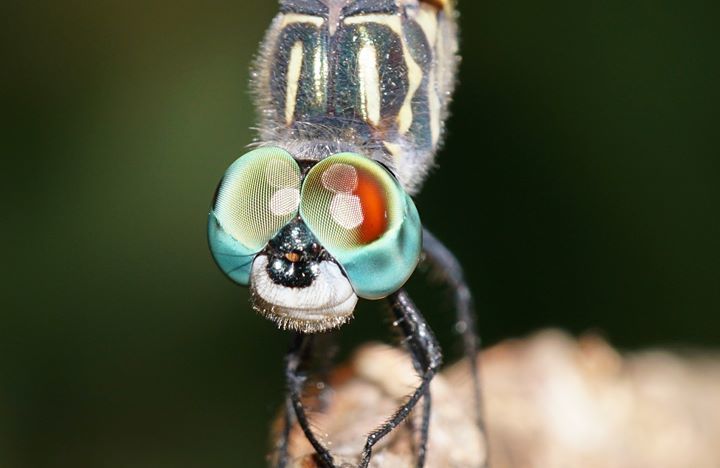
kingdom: Animalia
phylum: Arthropoda
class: Insecta
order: Odonata
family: Libellulidae
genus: Pachydiplax
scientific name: Pachydiplax longipennis
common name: Blue dasher
